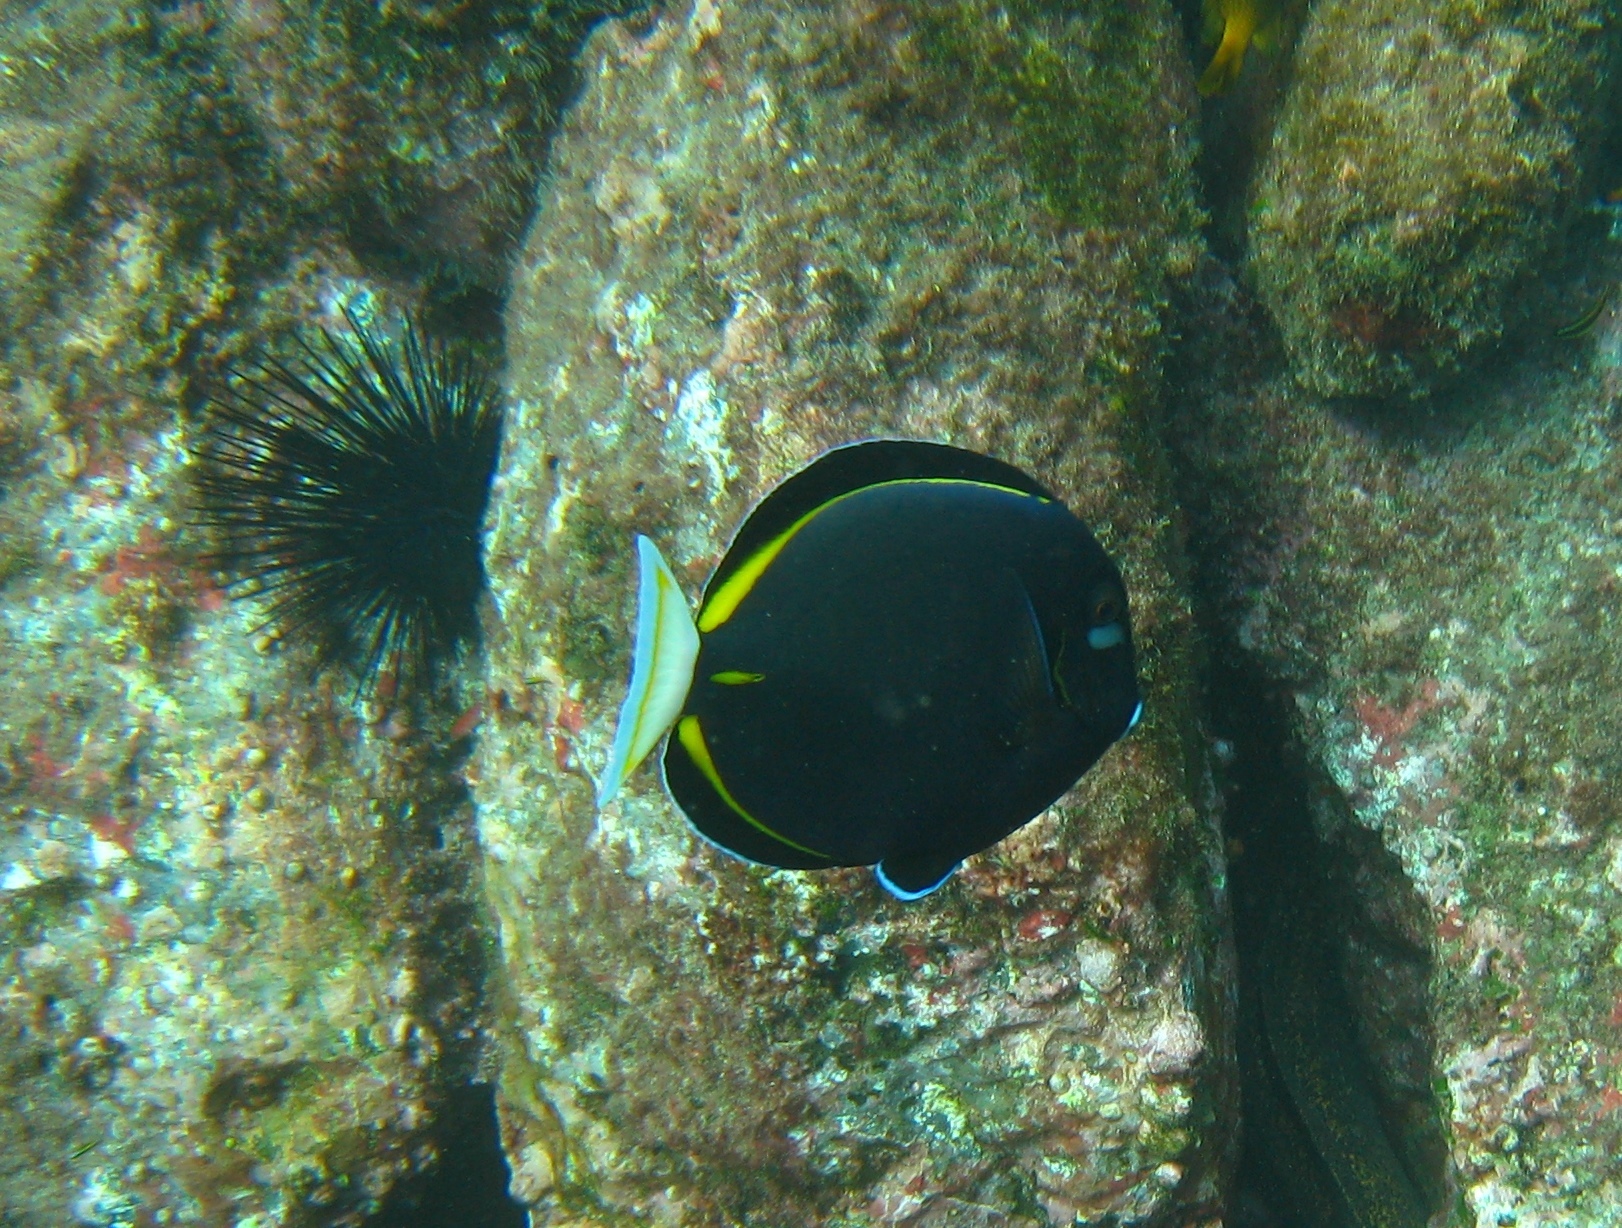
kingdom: Animalia
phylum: Chordata
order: Perciformes
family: Acanthuridae
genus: Acanthurus
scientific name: Acanthurus nigricans
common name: Whitecheek surgeonfish
